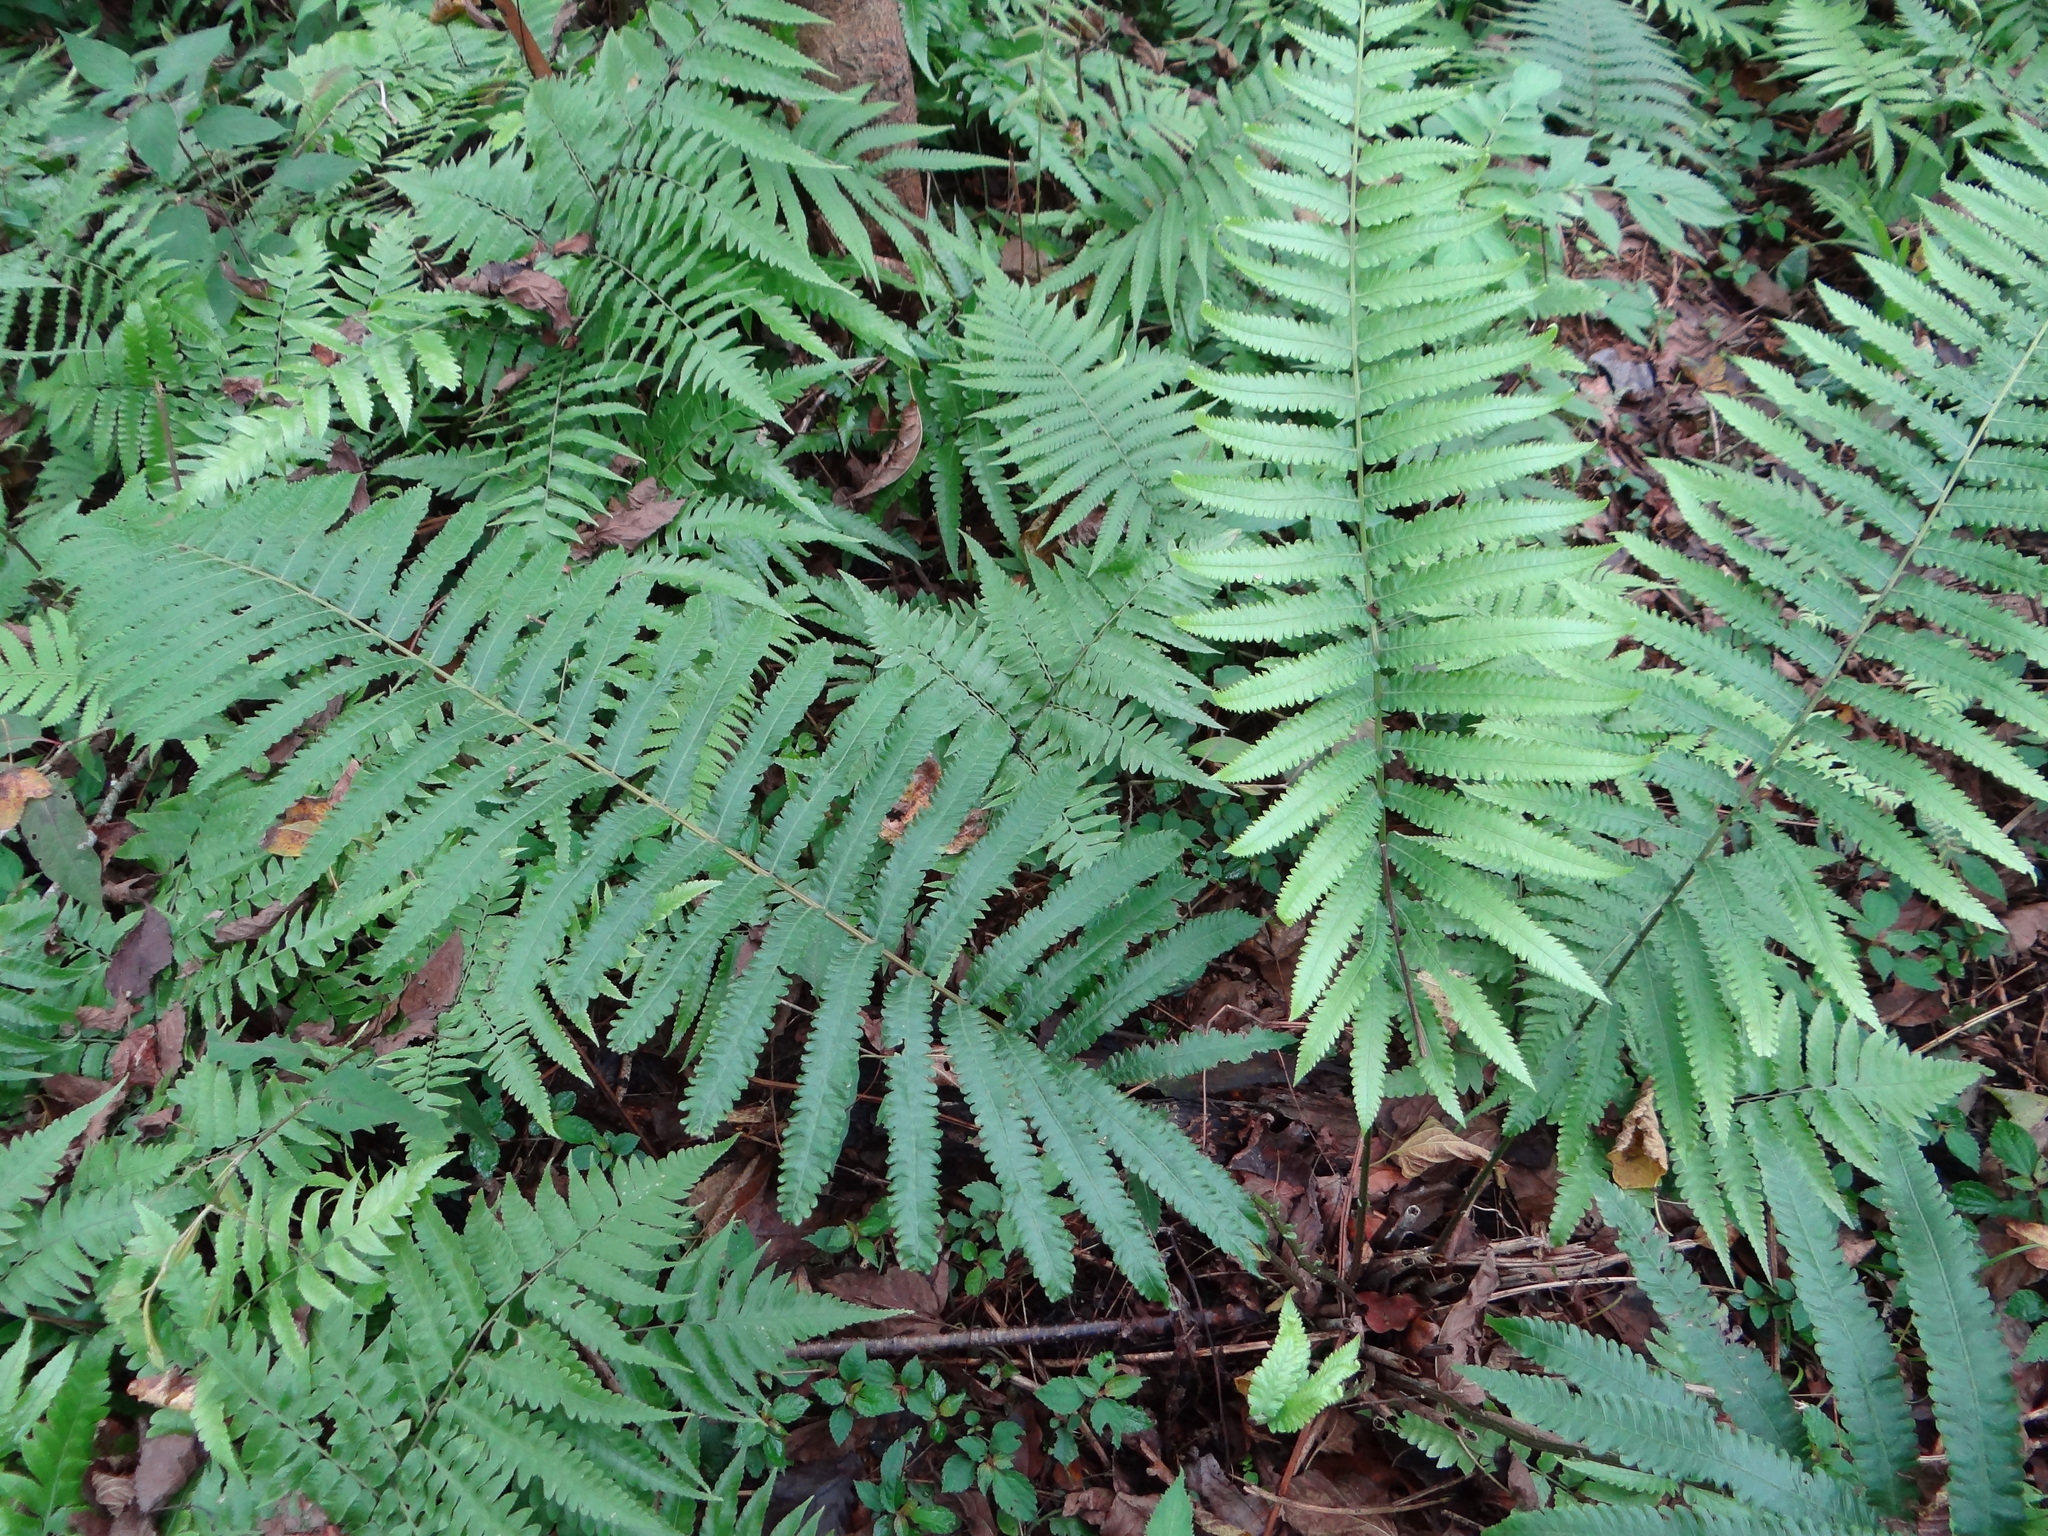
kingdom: Plantae
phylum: Tracheophyta
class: Polypodiopsida
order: Polypodiales
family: Thelypteridaceae
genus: Reholttumia
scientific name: Reholttumia truncata
